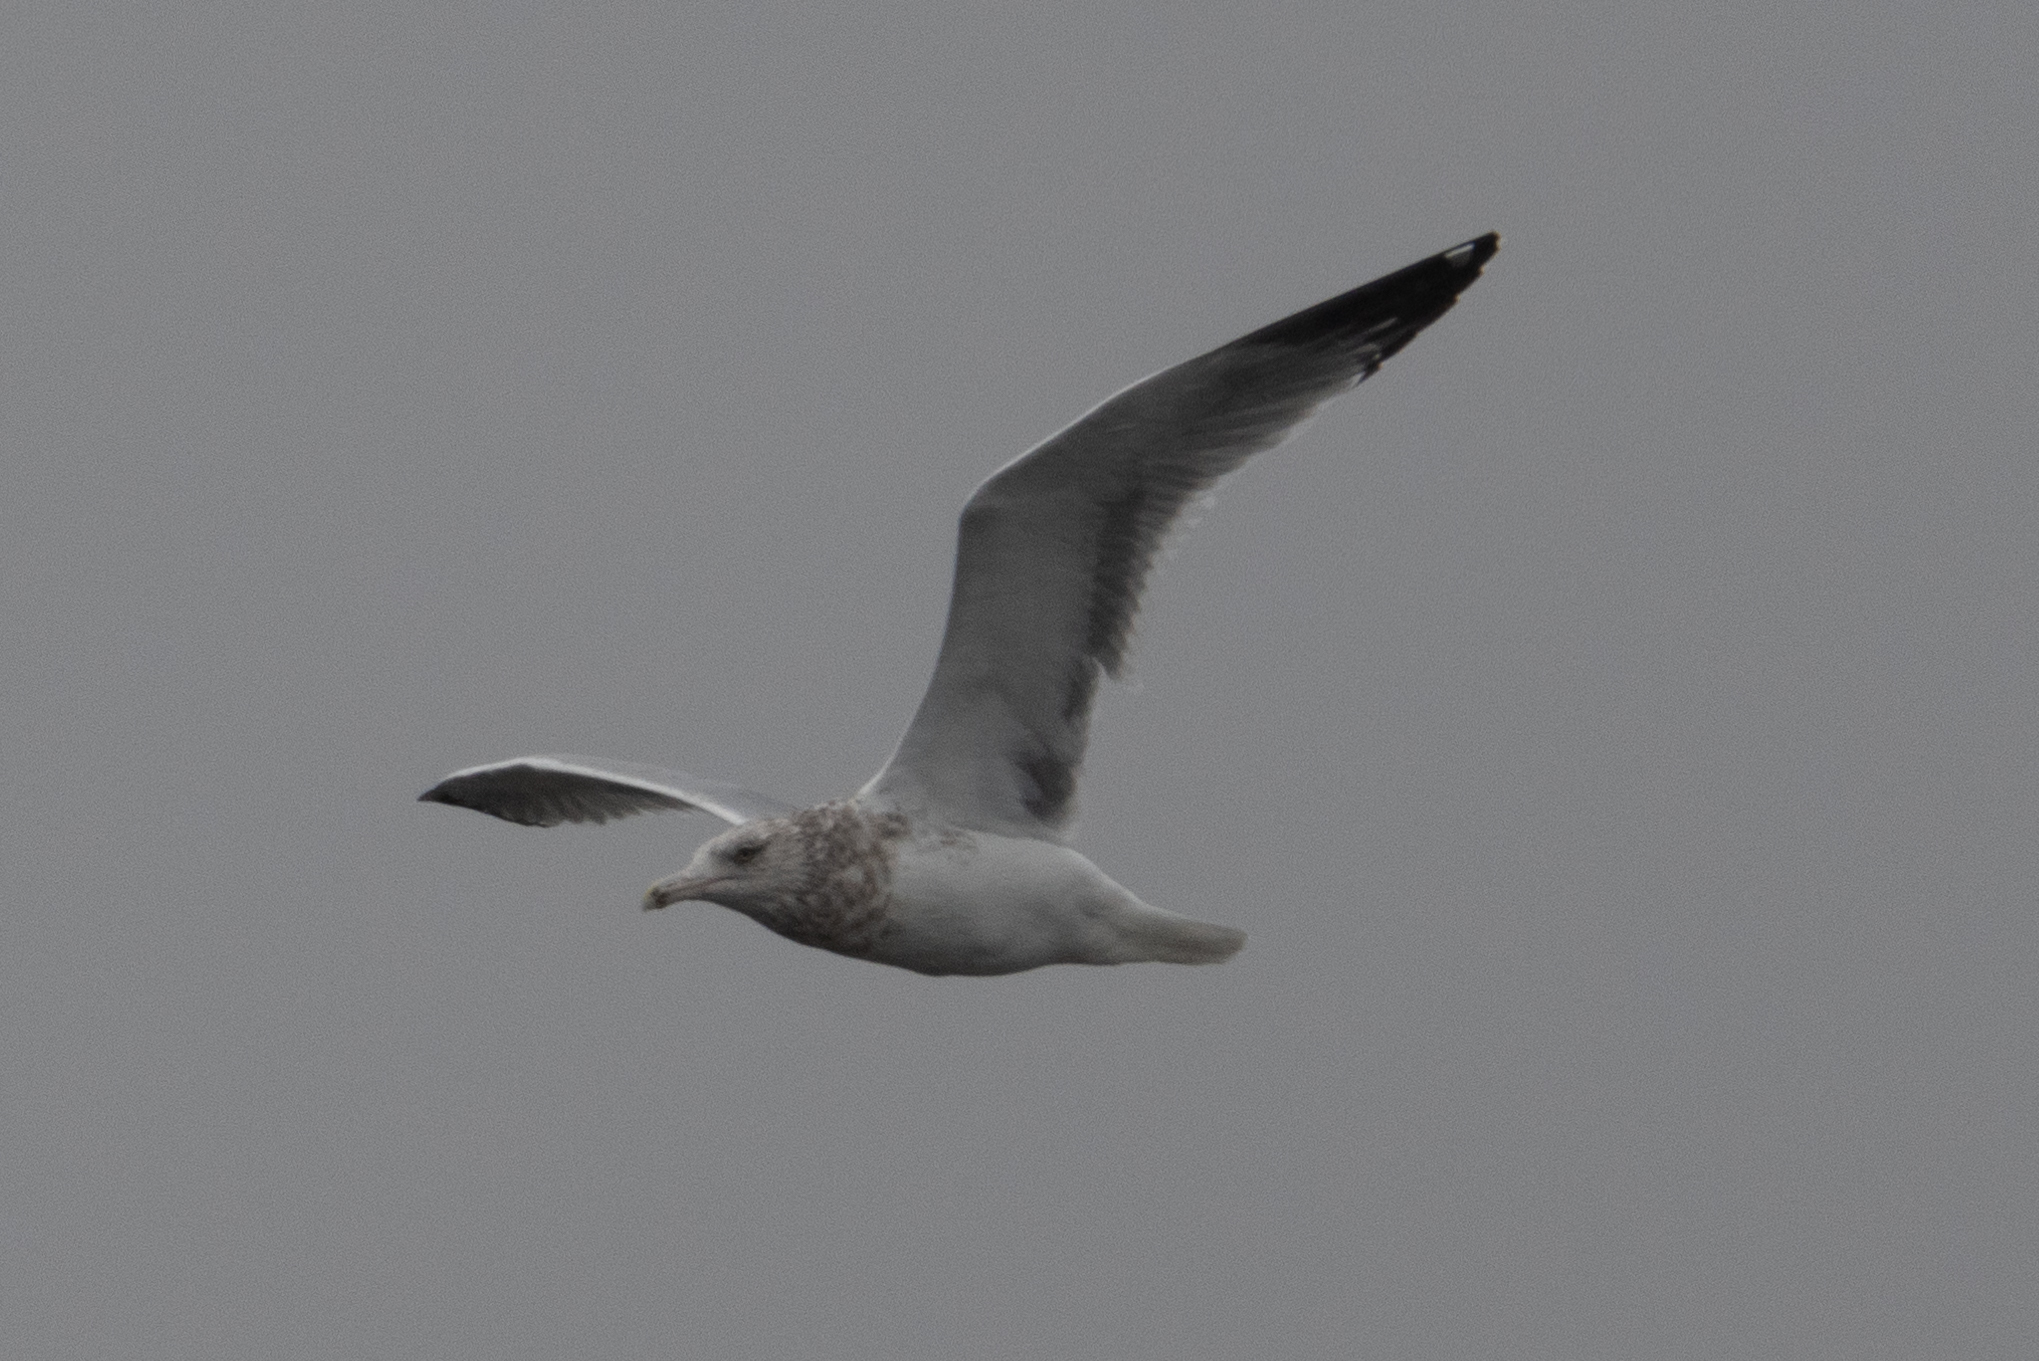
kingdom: Animalia
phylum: Chordata
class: Aves
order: Charadriiformes
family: Laridae
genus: Larus
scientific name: Larus argentatus
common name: Herring gull
